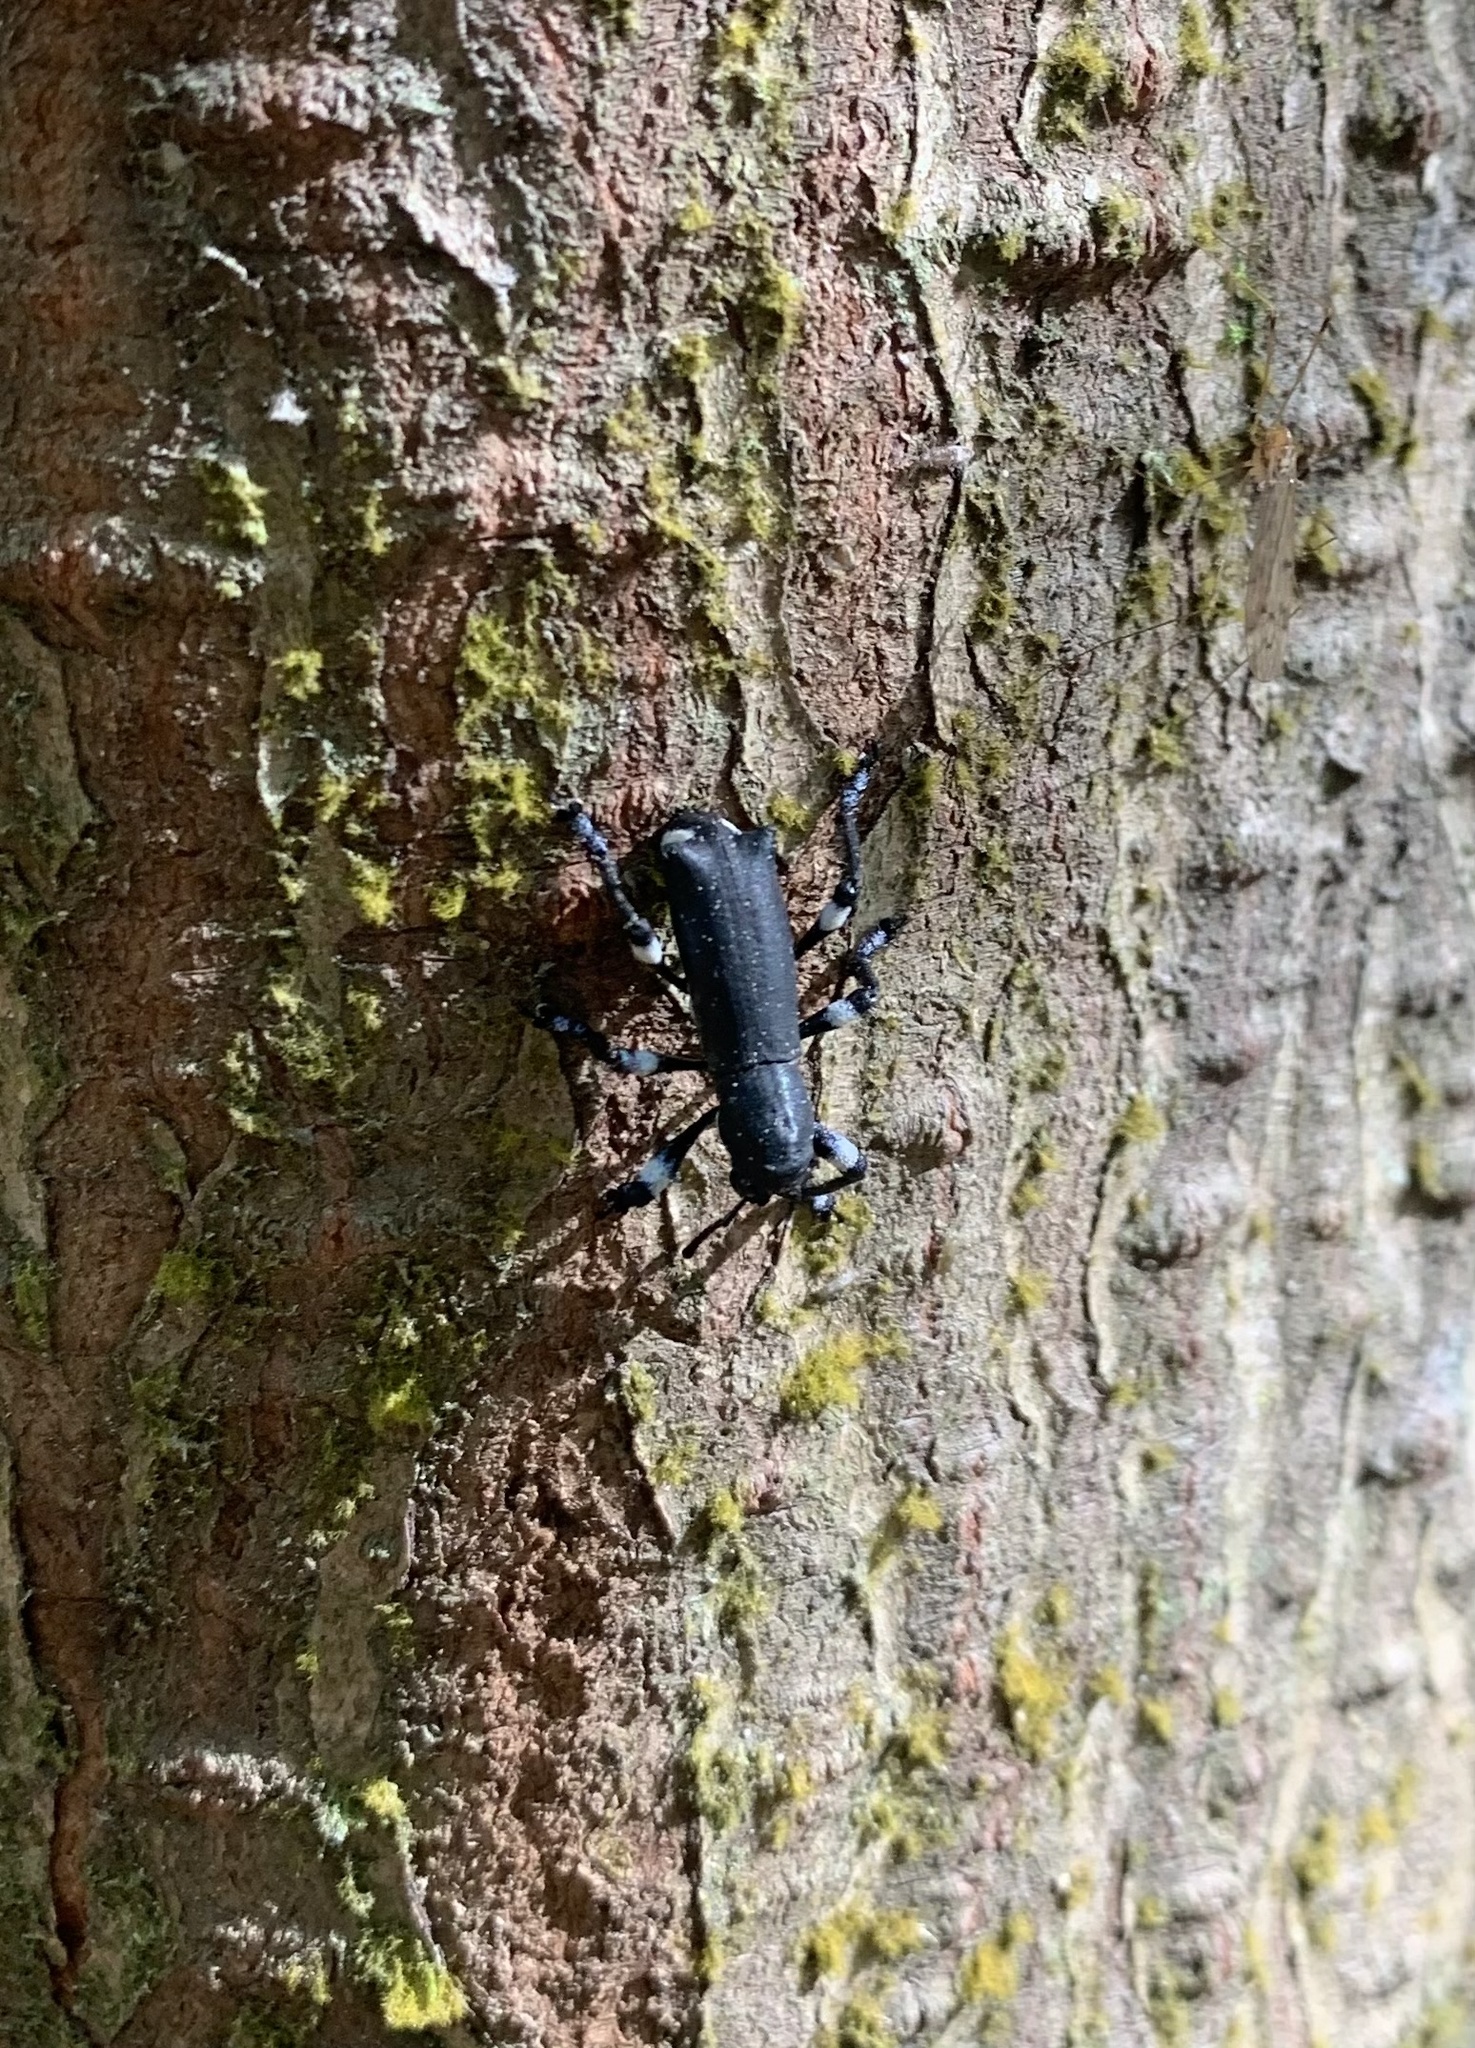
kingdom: Animalia
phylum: Arthropoda
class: Insecta
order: Coleoptera
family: Curculionidae
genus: Aegorhinus
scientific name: Aegorhinus
